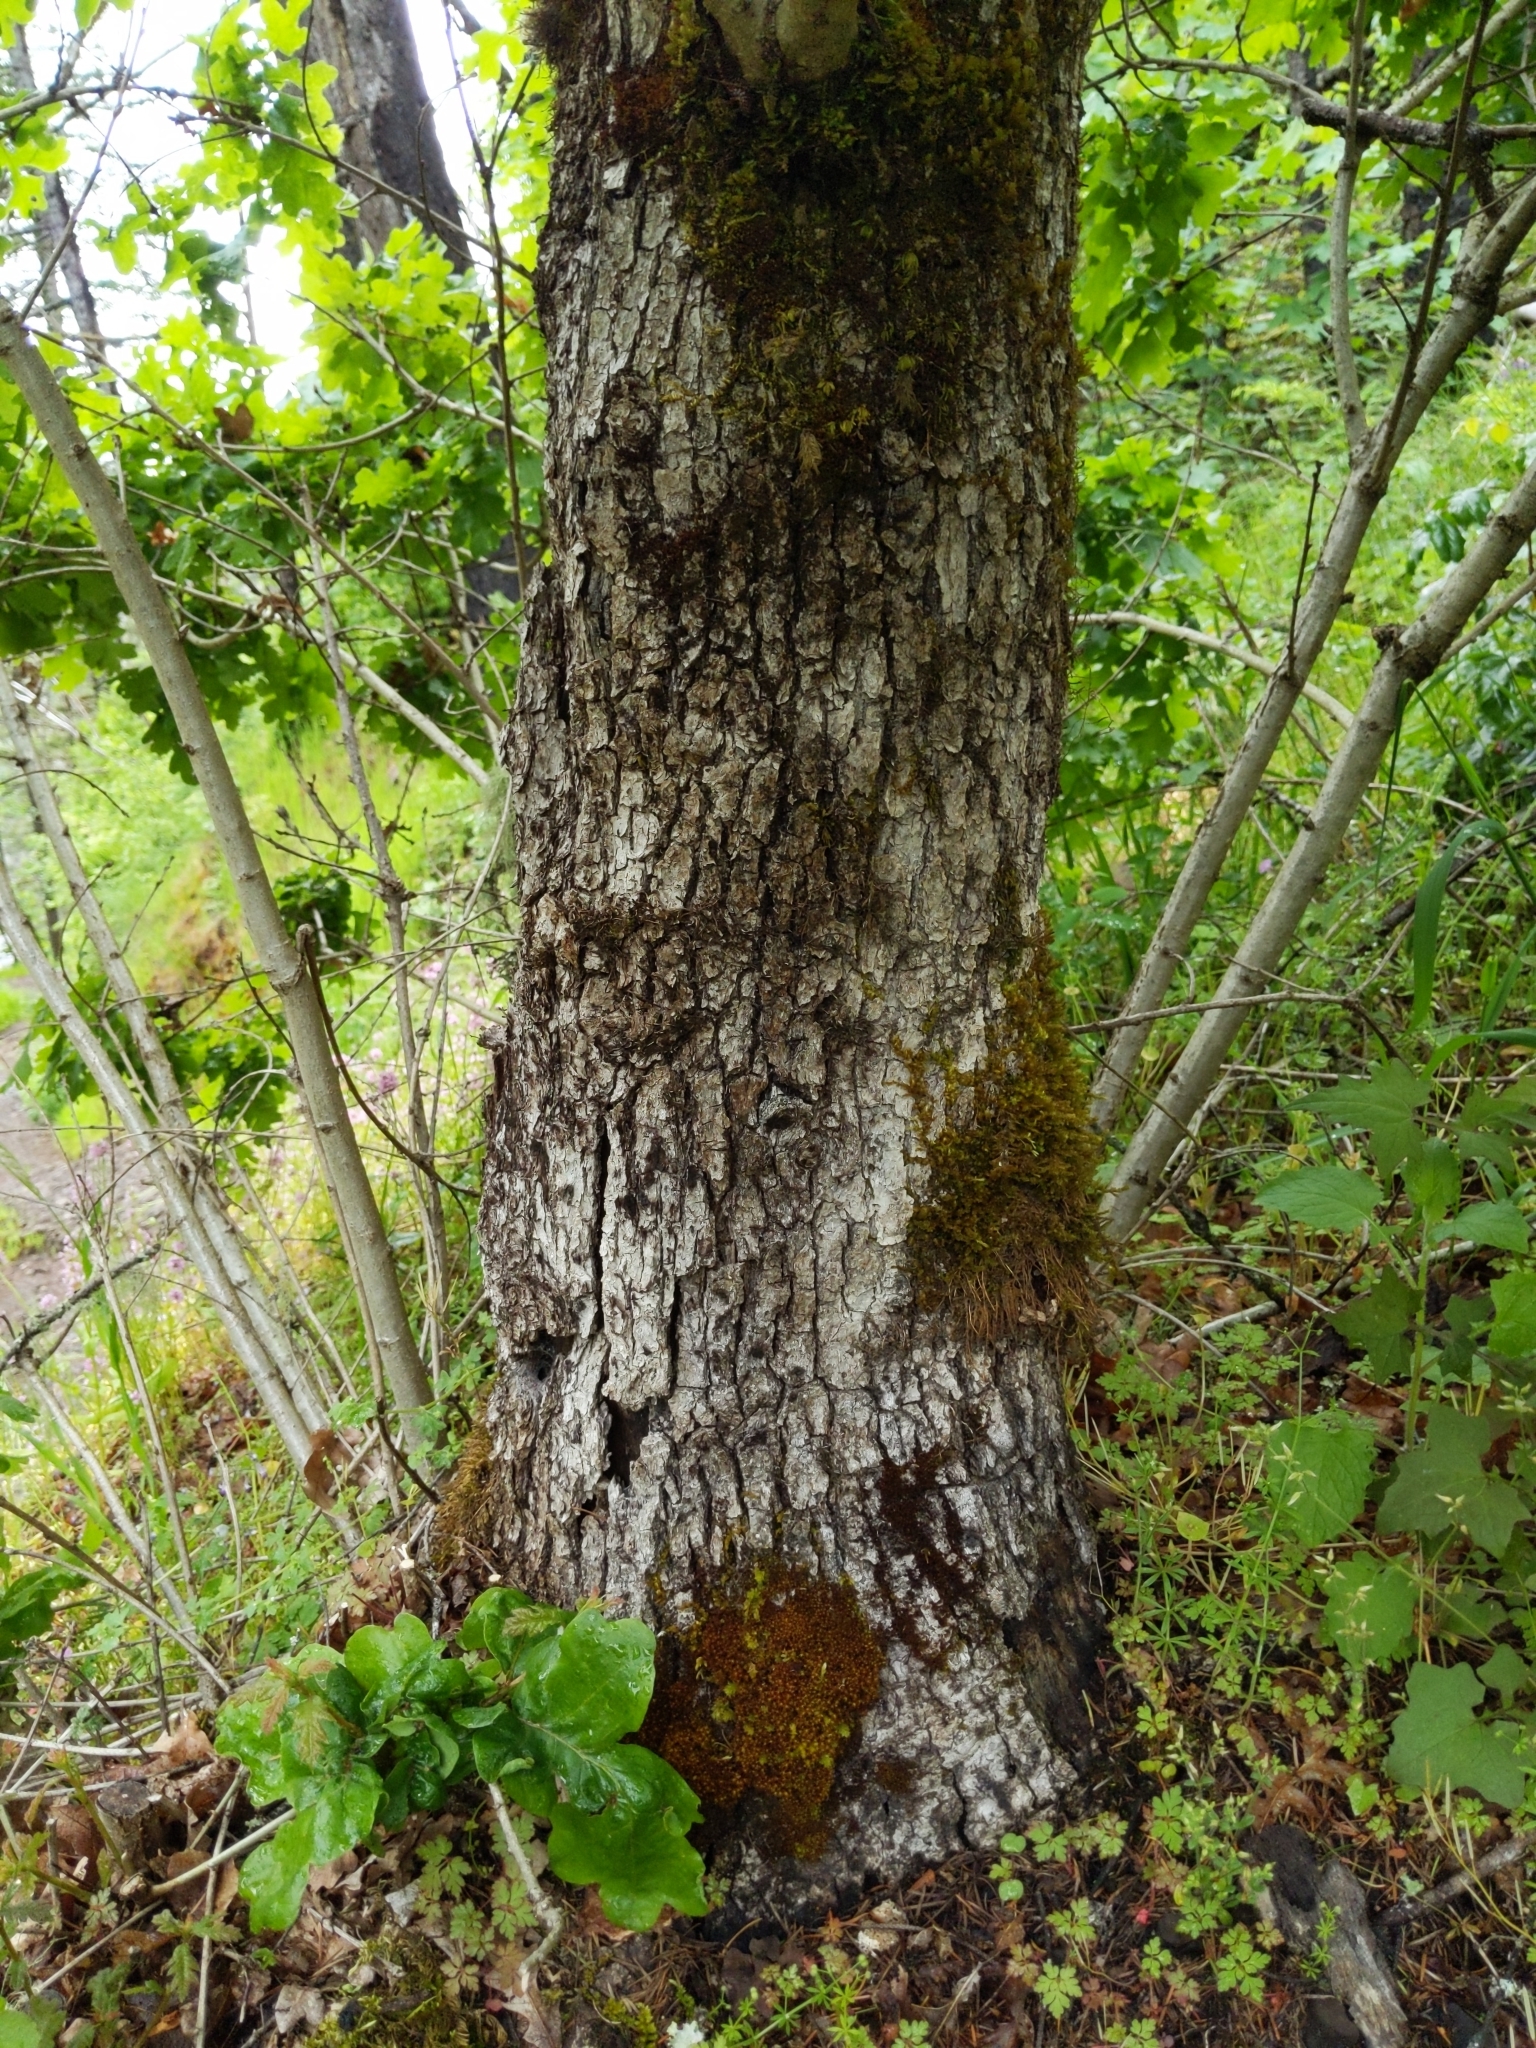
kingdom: Plantae
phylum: Tracheophyta
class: Magnoliopsida
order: Fagales
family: Fagaceae
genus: Quercus
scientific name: Quercus garryana
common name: Garry oak
